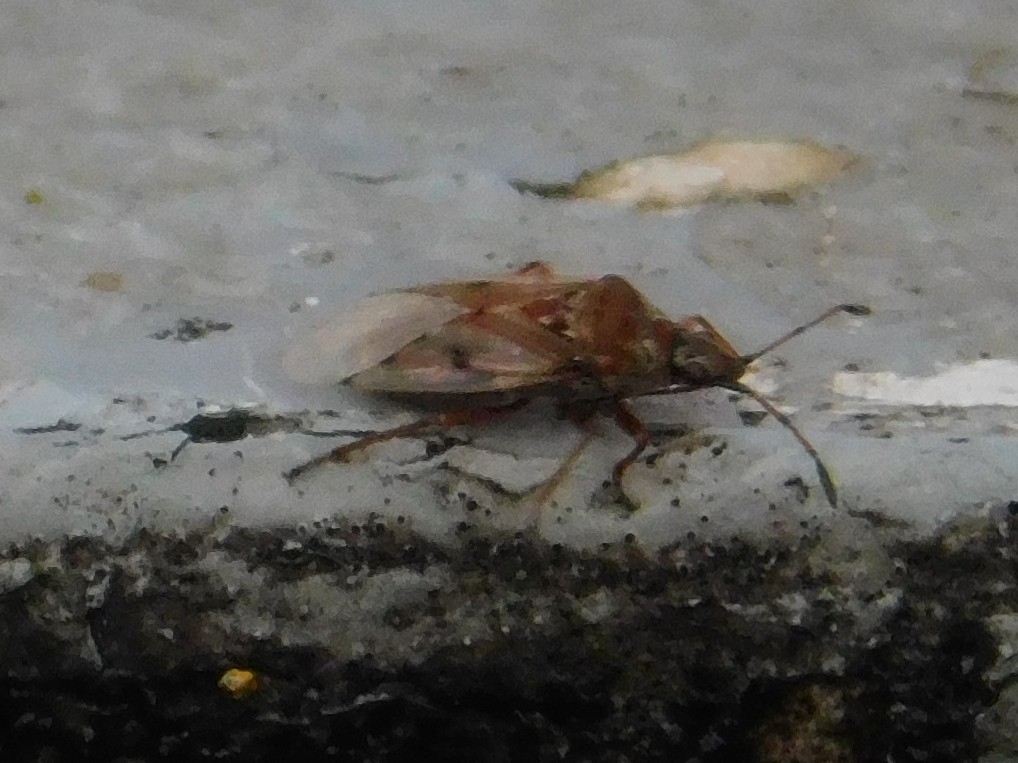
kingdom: Animalia
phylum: Arthropoda
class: Insecta
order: Hemiptera
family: Lygaeidae
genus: Kleidocerys
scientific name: Kleidocerys resedae
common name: Birch catkin bug
